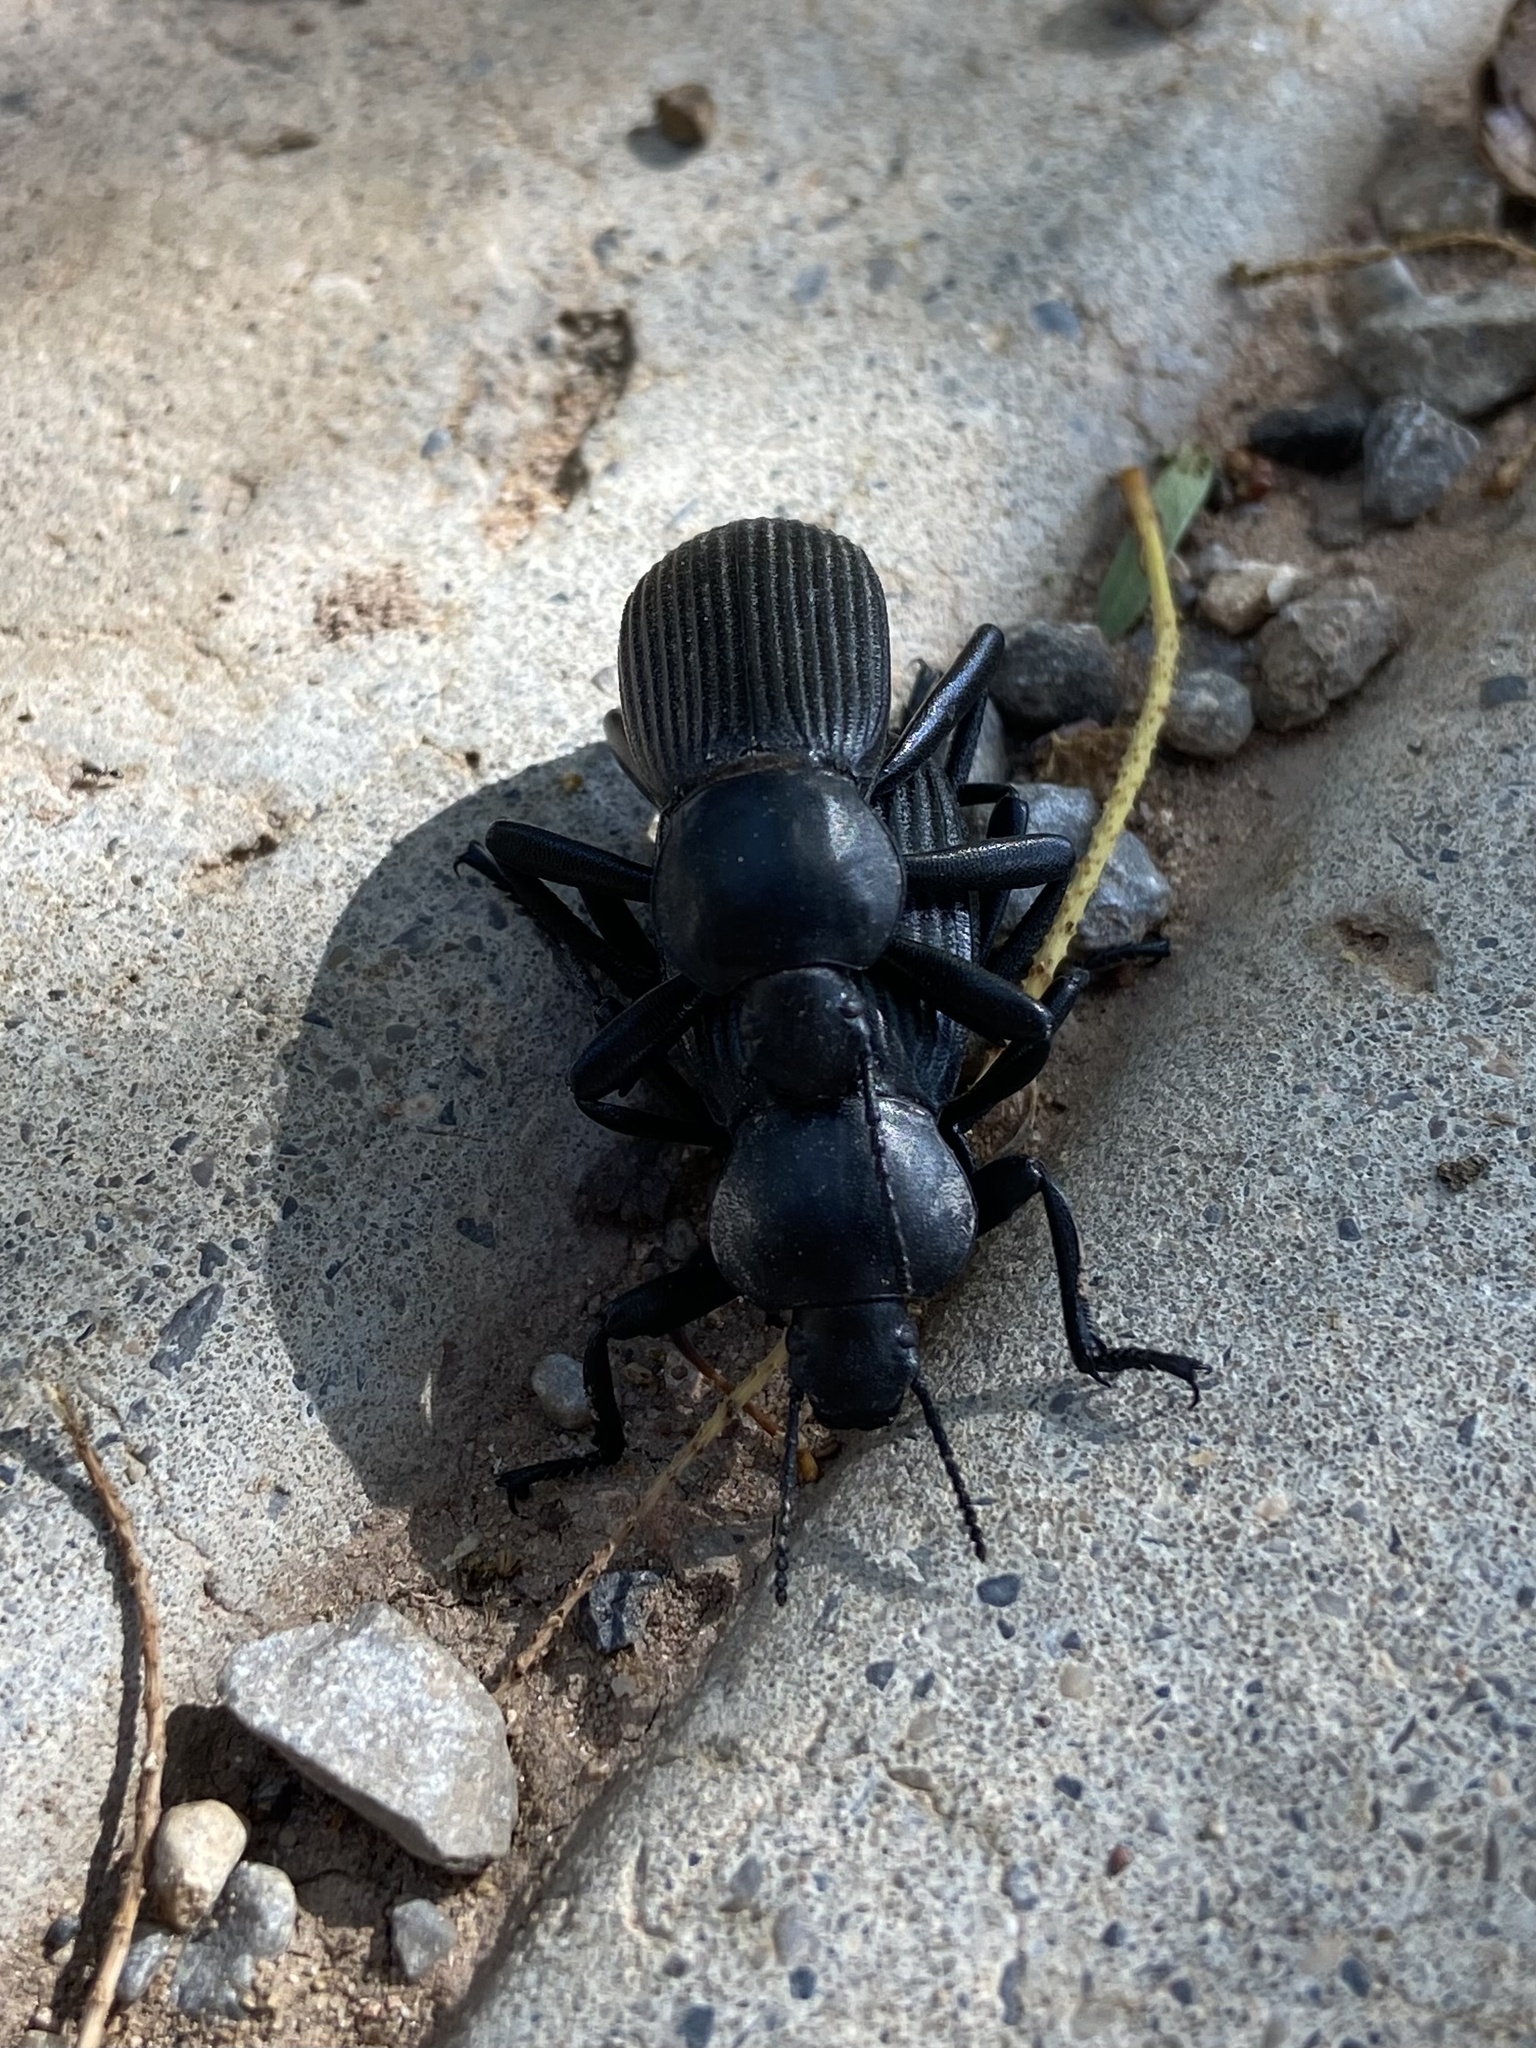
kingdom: Animalia
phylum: Arthropoda
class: Insecta
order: Coleoptera
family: Tenebrionidae
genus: Eleodes
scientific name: Eleodes obscura
